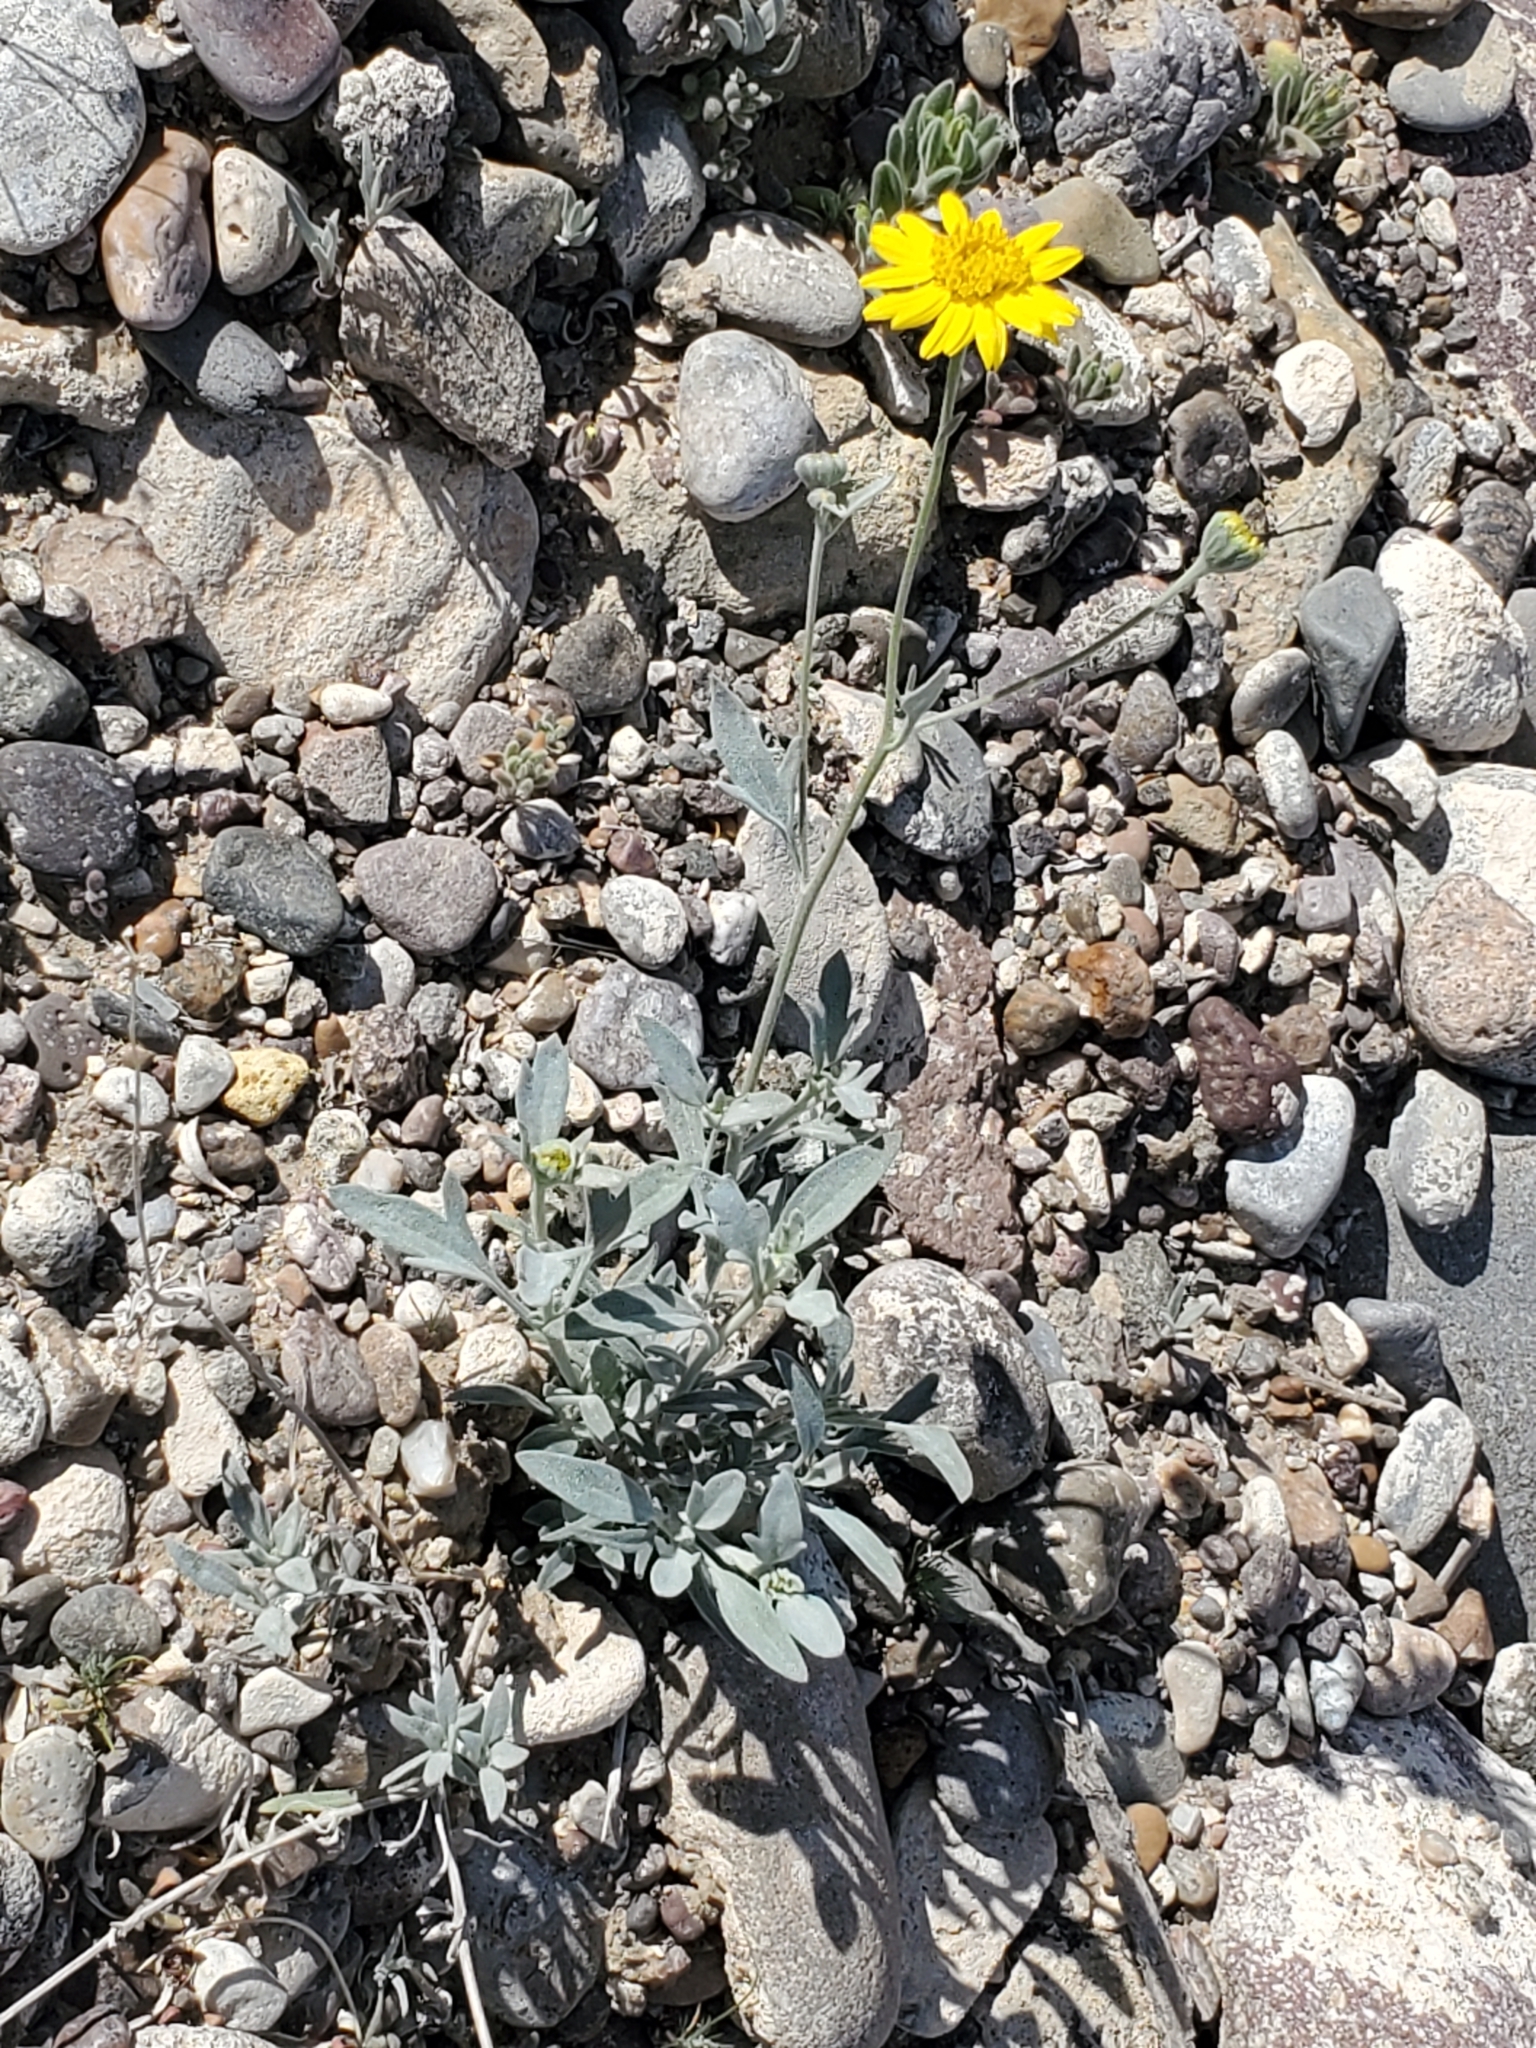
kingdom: Plantae
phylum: Tracheophyta
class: Magnoliopsida
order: Asterales
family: Asteraceae
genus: Picradeniopsis
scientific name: Picradeniopsis absinthifolia
